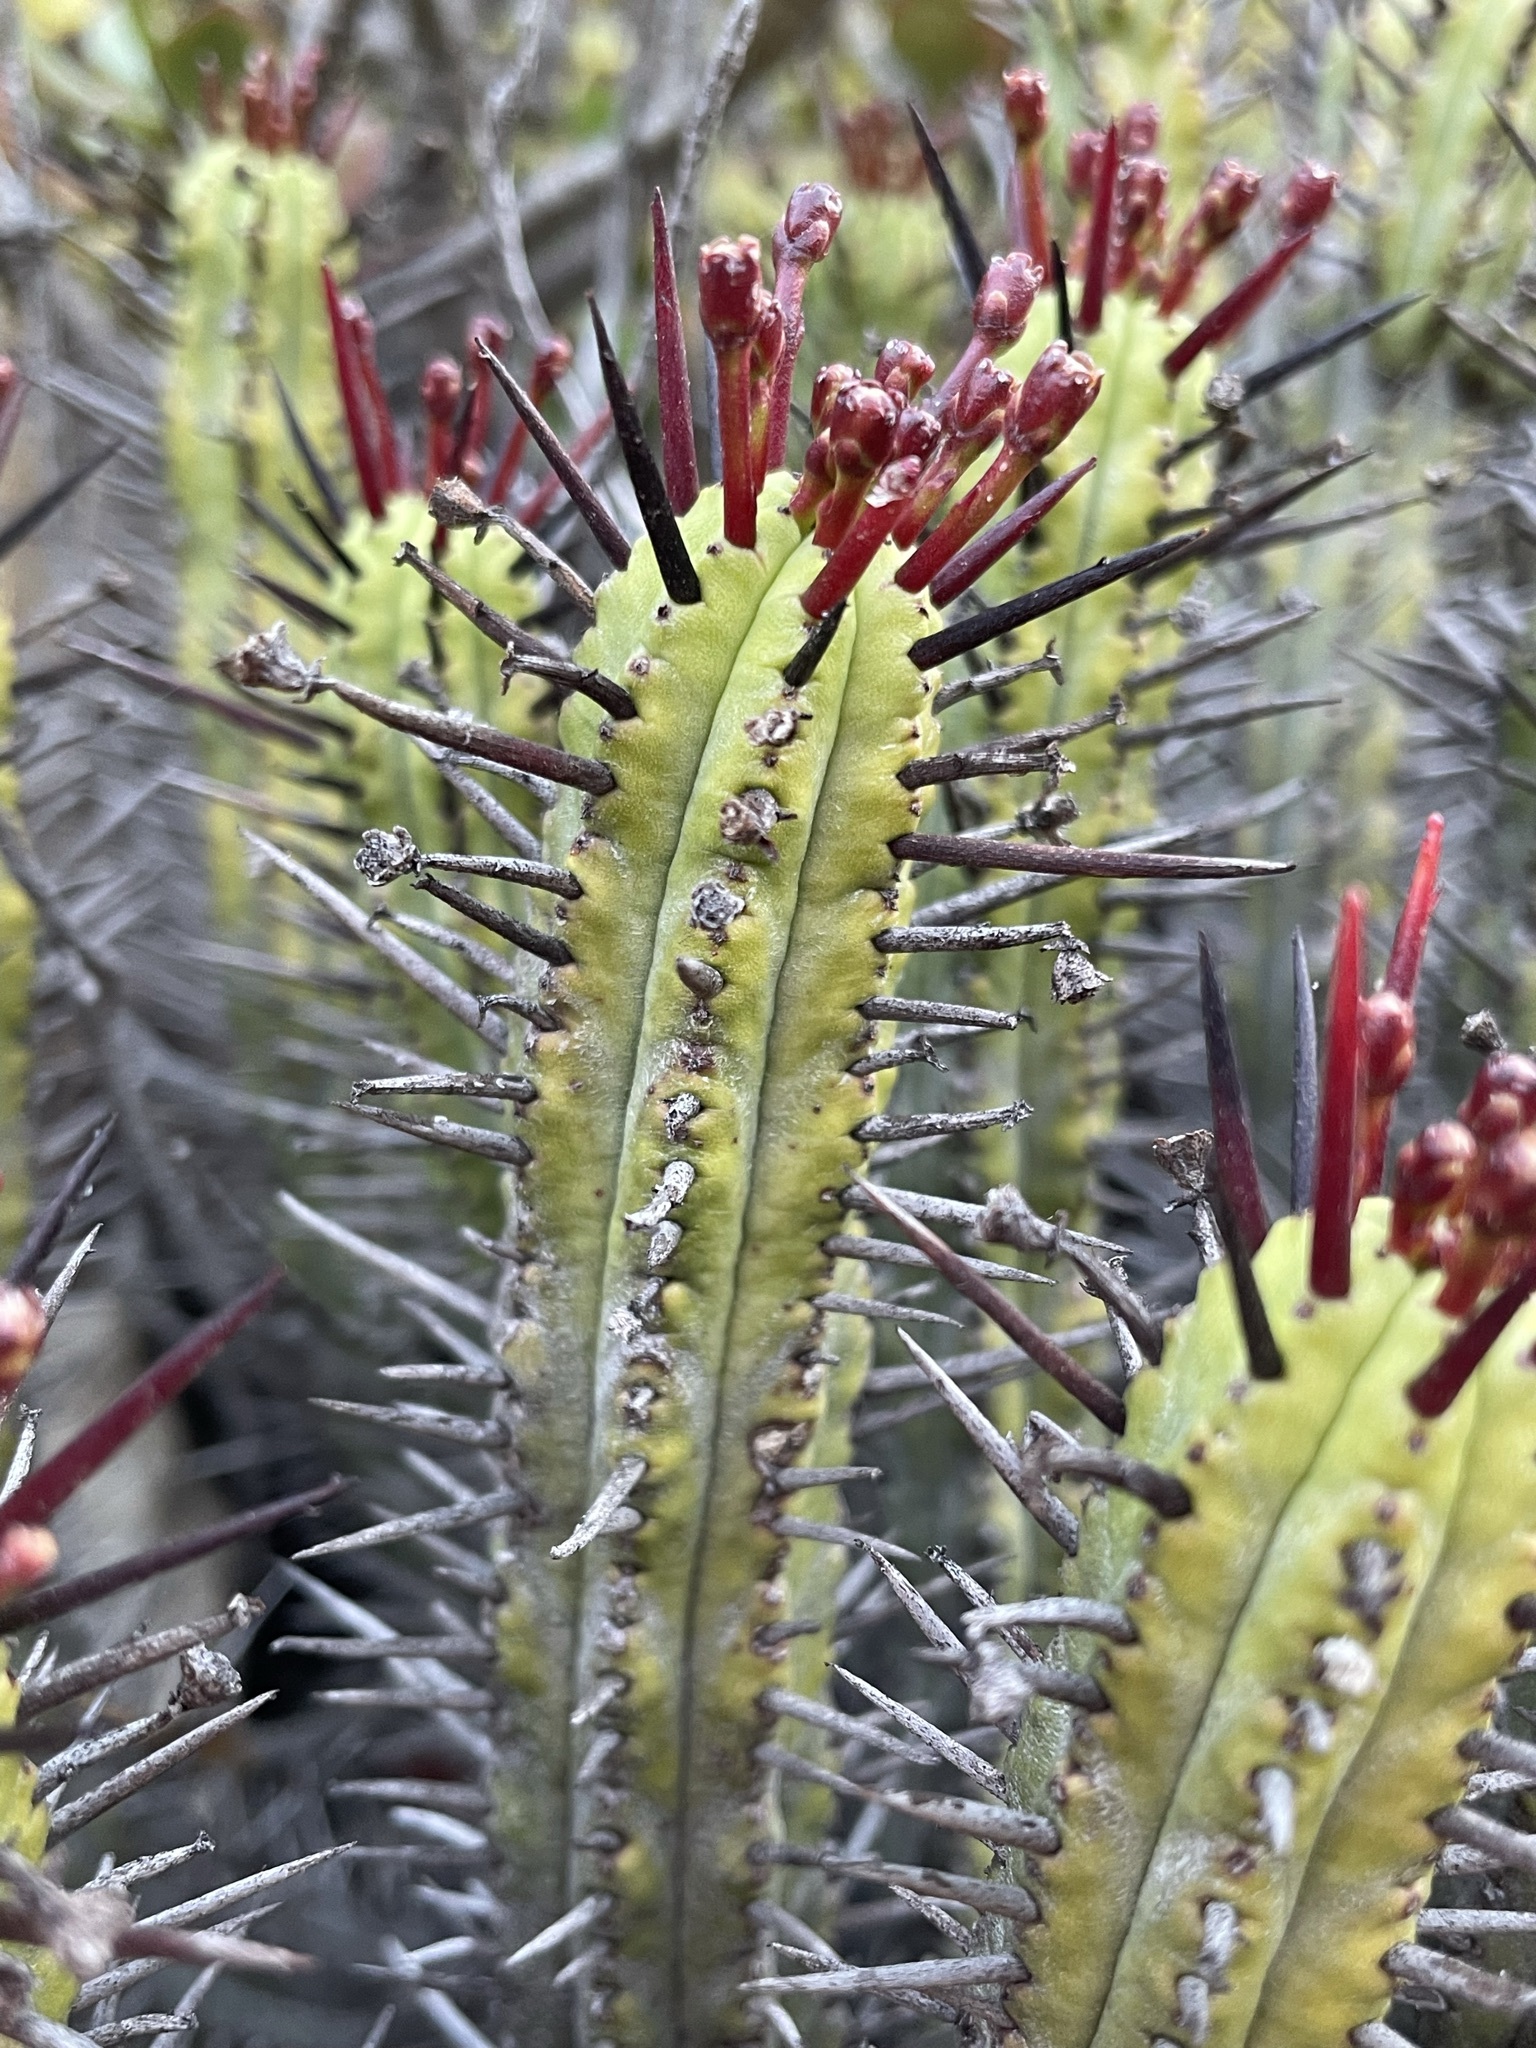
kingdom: Plantae
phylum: Tracheophyta
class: Magnoliopsida
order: Malpighiales
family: Euphorbiaceae
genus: Euphorbia
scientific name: Euphorbia heptagona
